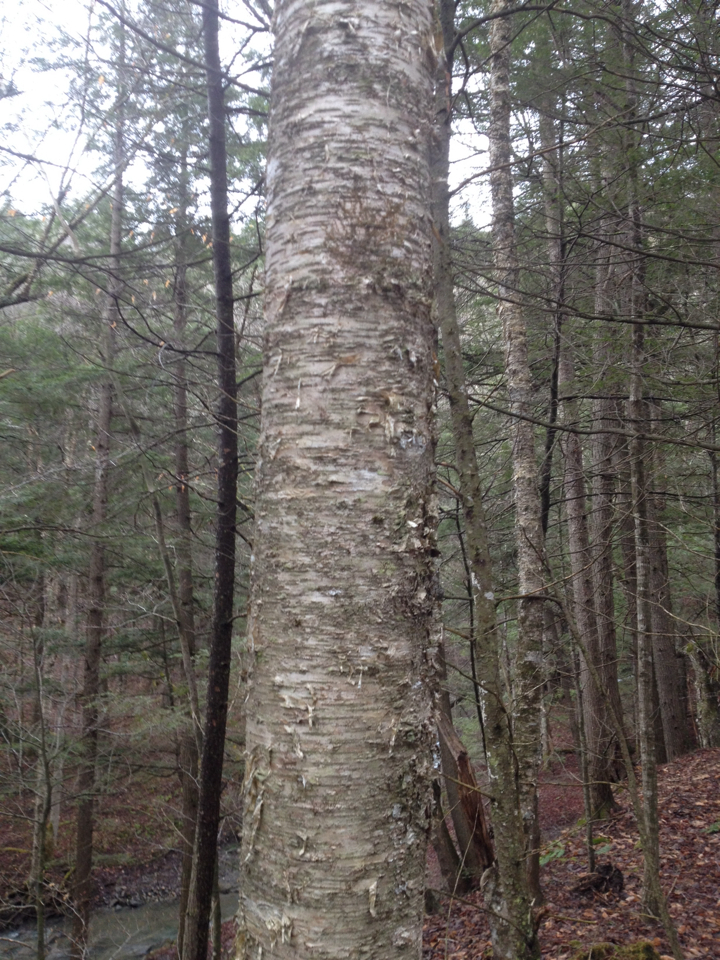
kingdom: Plantae
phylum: Tracheophyta
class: Magnoliopsida
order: Fagales
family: Betulaceae
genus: Betula
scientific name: Betula alleghaniensis
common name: Yellow birch
